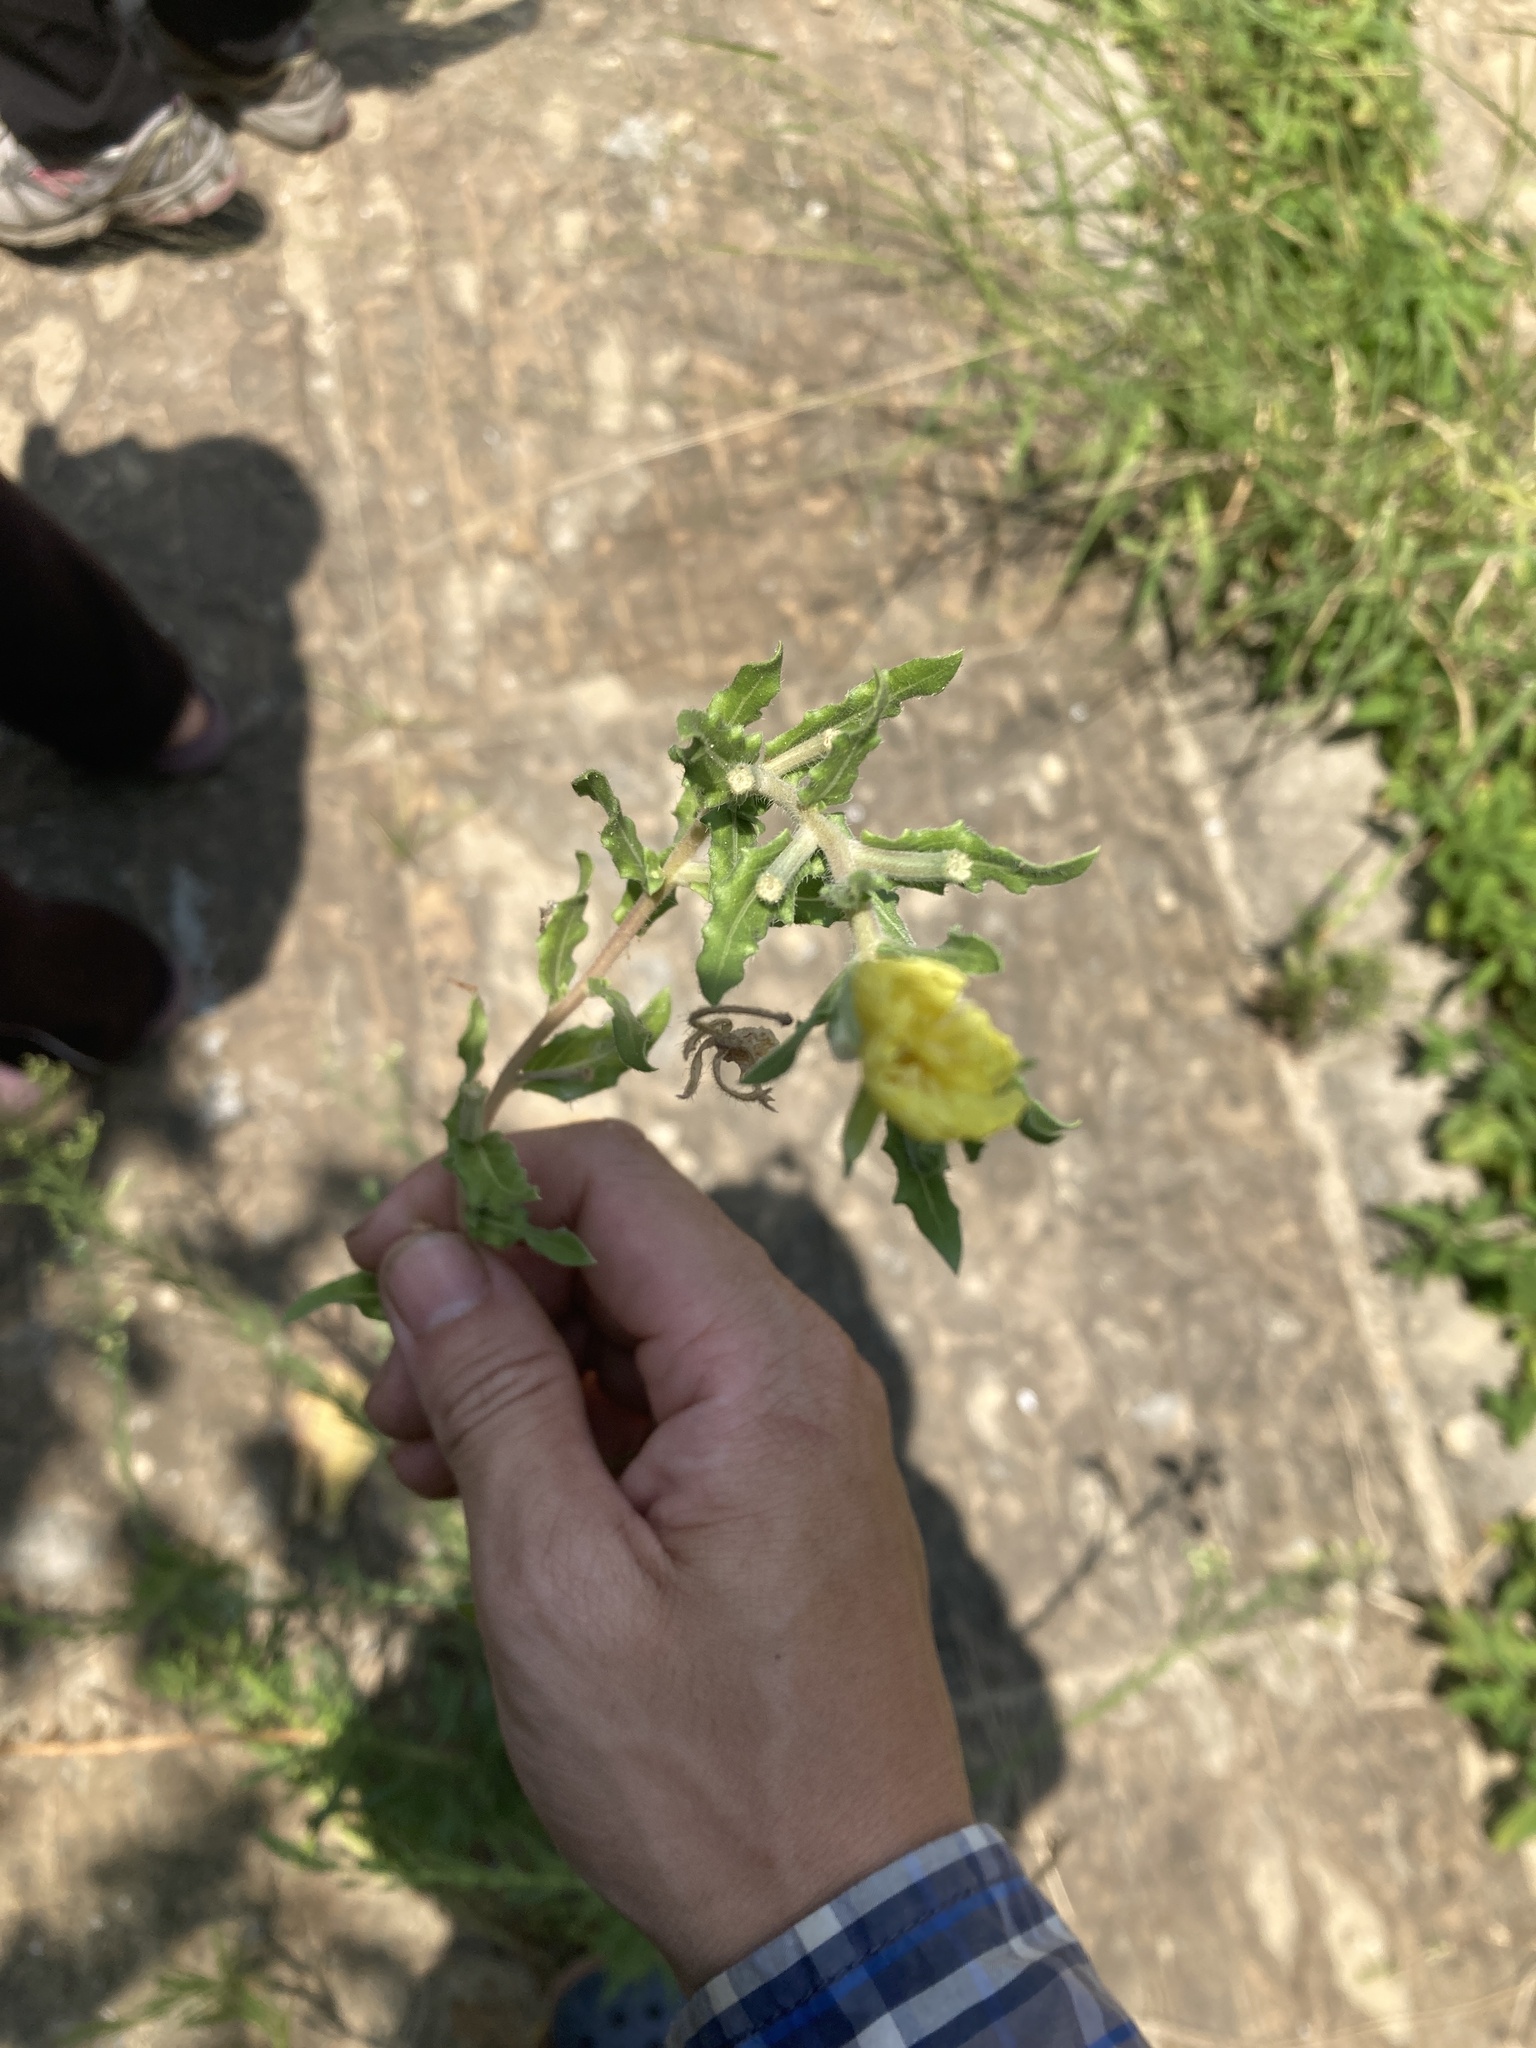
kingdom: Plantae
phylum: Tracheophyta
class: Magnoliopsida
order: Myrtales
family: Onagraceae
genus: Oenothera
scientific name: Oenothera laciniata
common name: Cut-leaved evening-primrose
